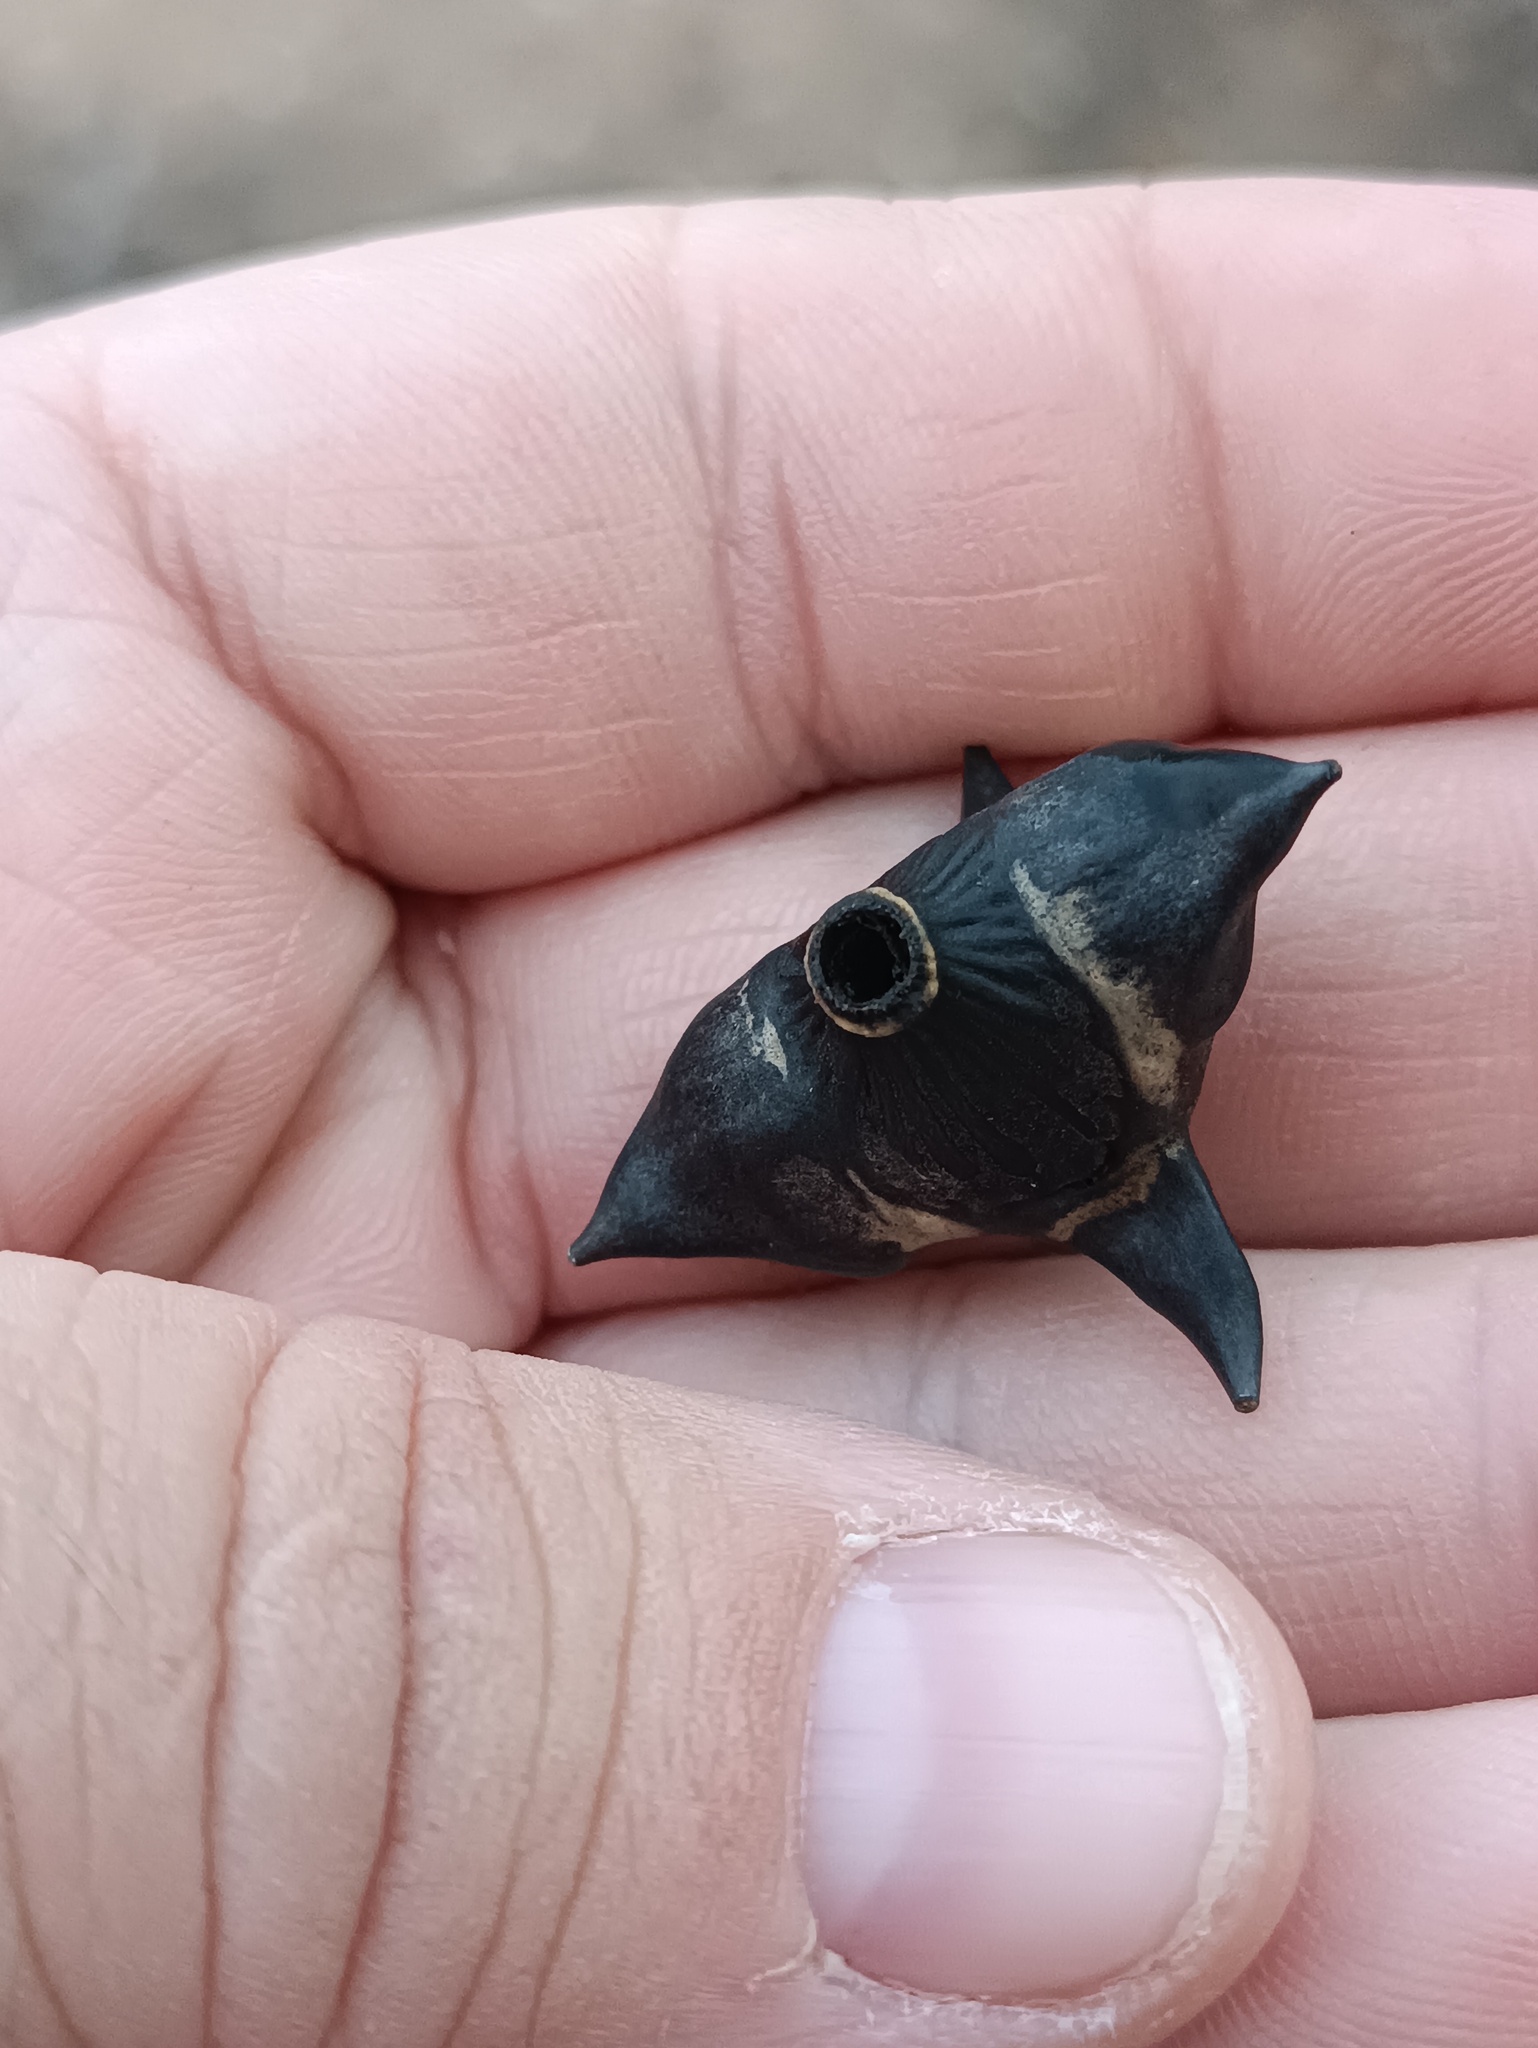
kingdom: Plantae
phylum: Tracheophyta
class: Magnoliopsida
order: Myrtales
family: Lythraceae
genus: Trapa
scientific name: Trapa natans
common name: Water chestnut
